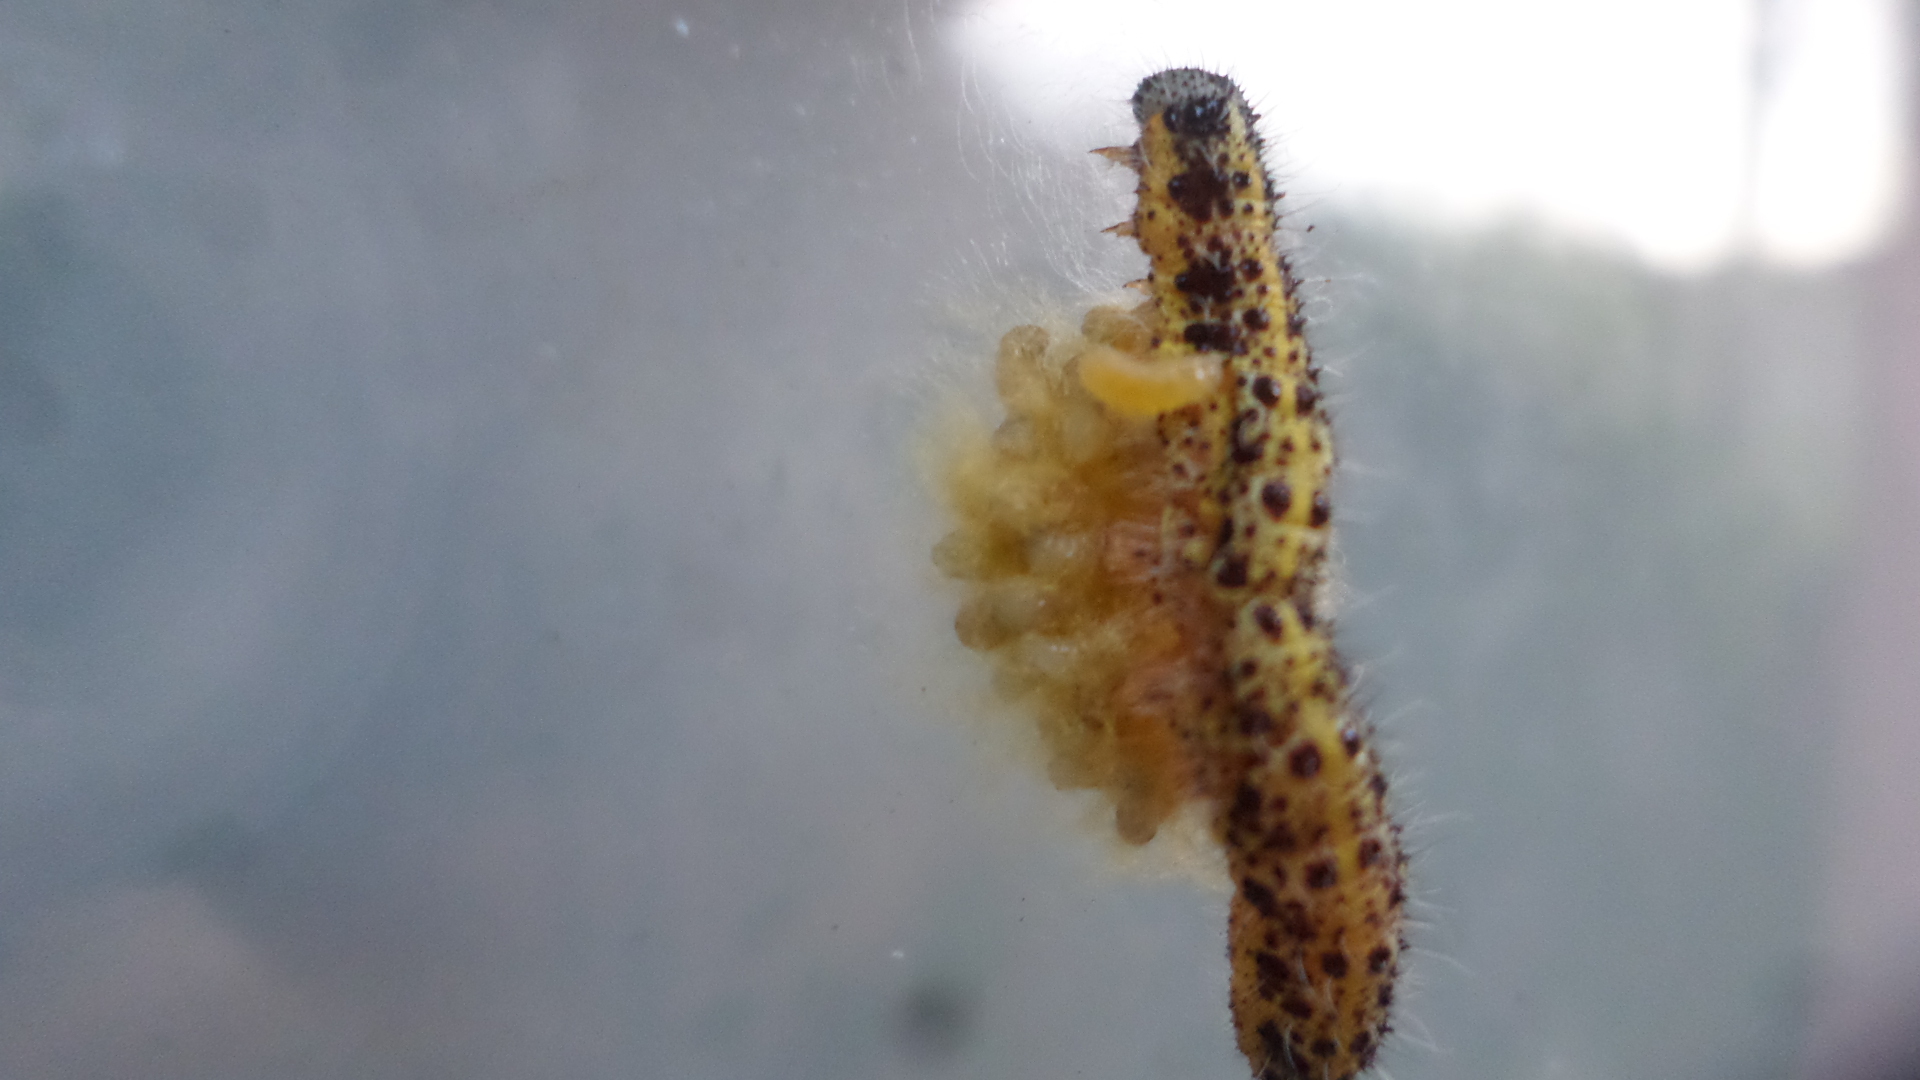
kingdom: Animalia
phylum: Arthropoda
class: Insecta
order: Hymenoptera
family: Braconidae
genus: Cotesia
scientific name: Cotesia glomerata
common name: Parasitoid wasp
